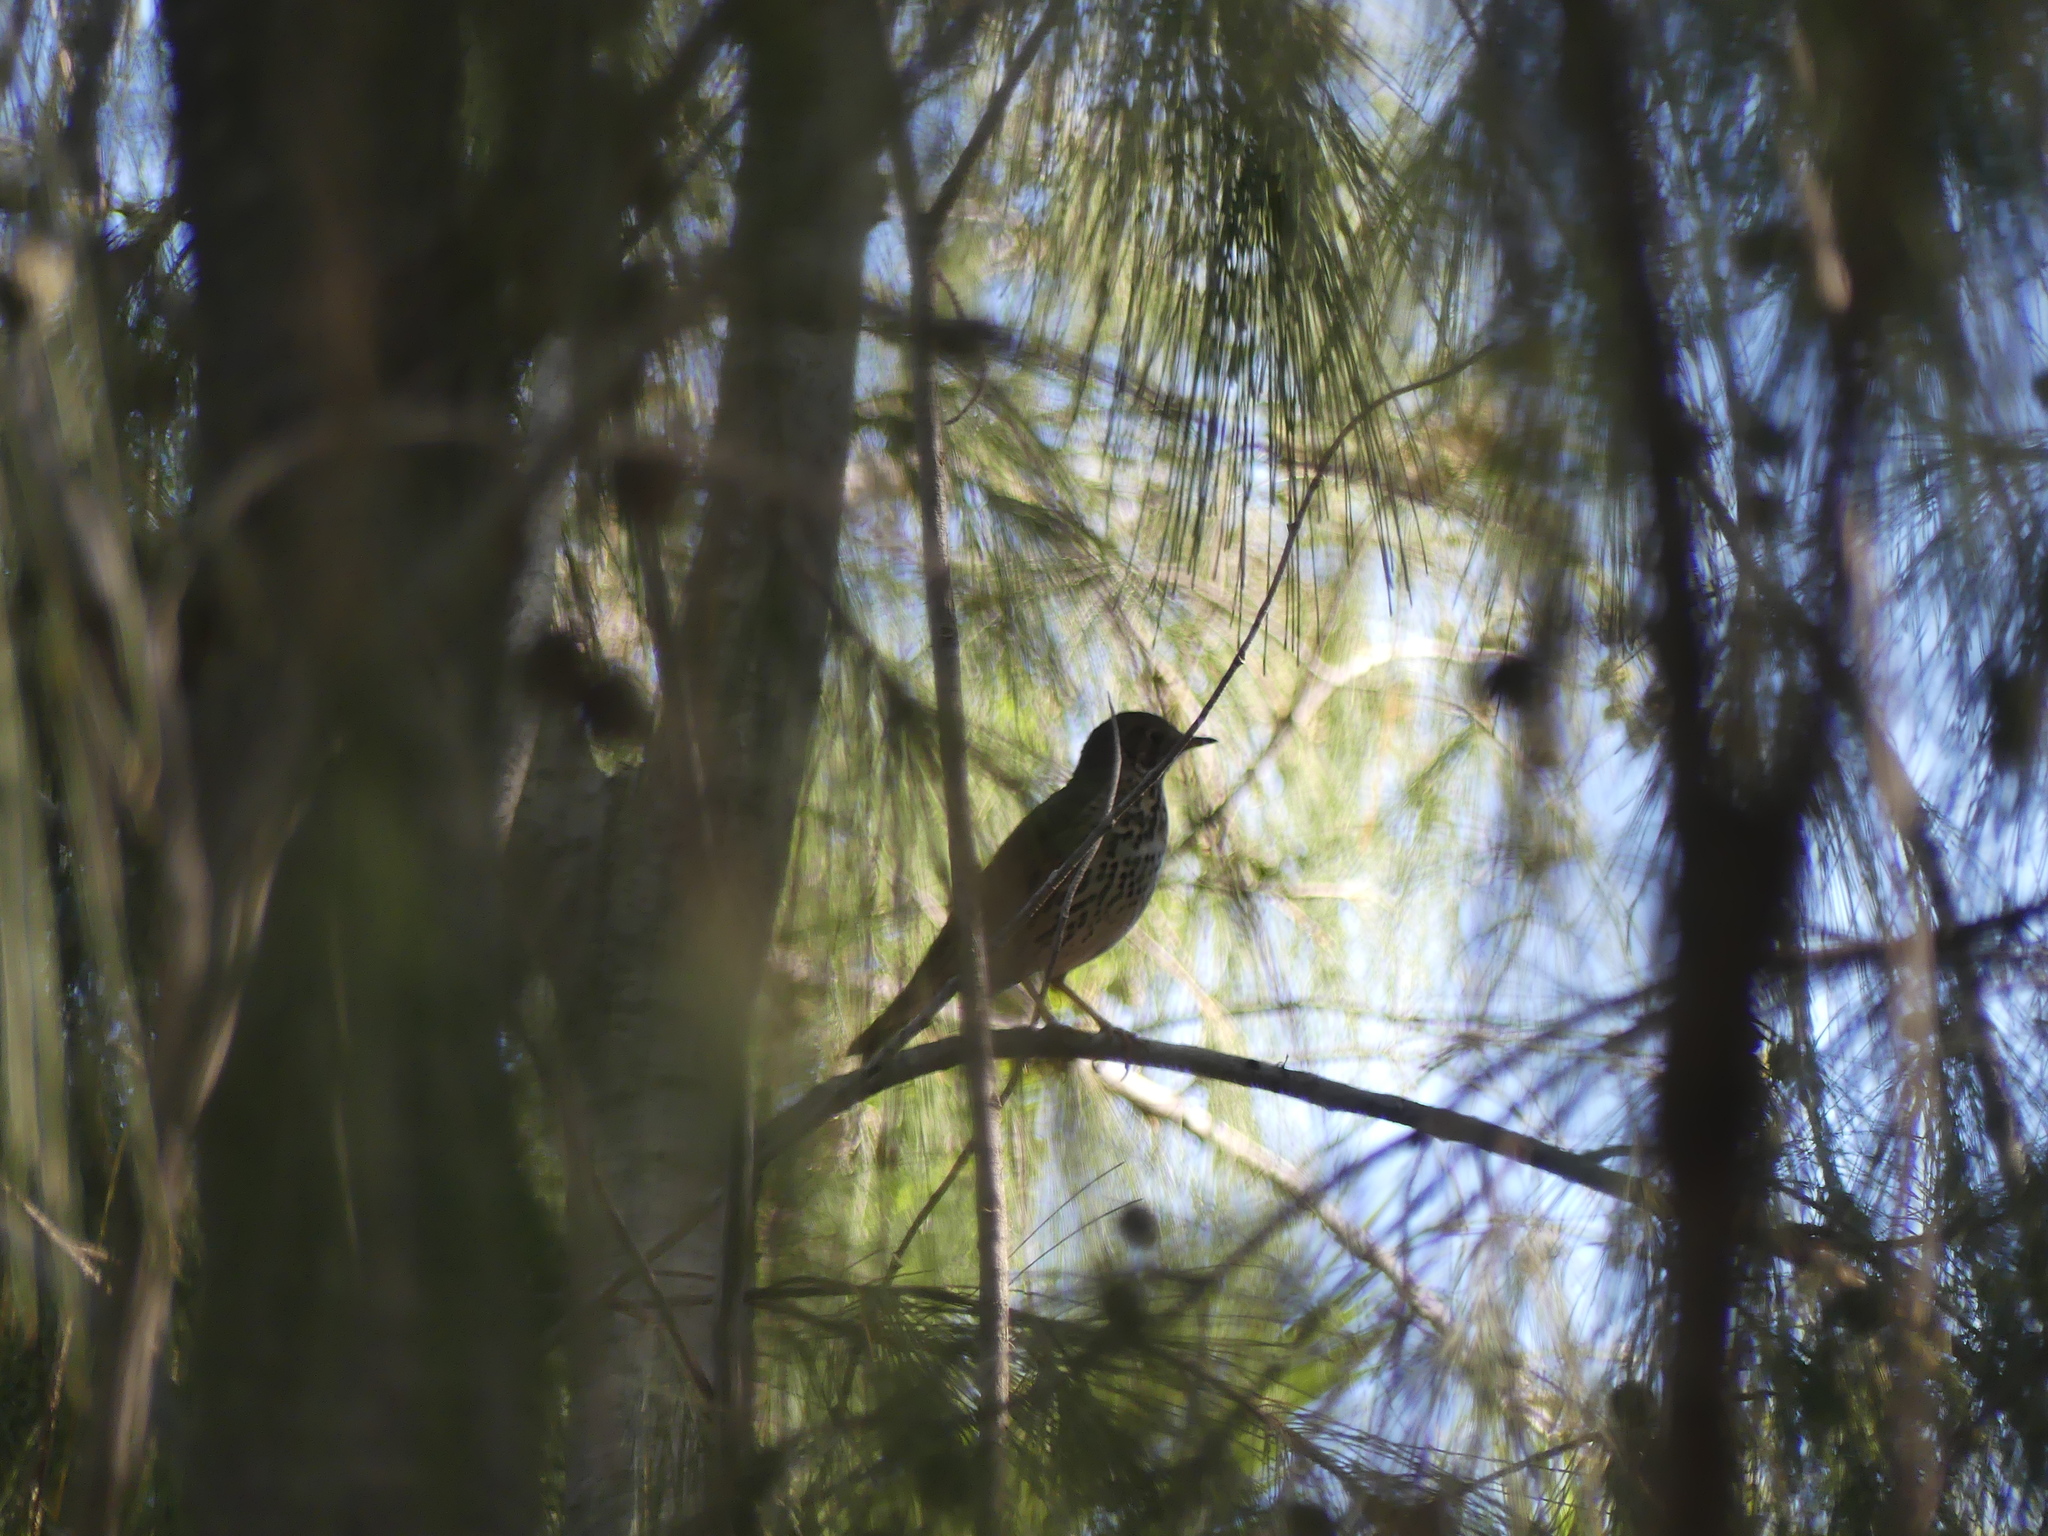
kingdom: Animalia
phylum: Chordata
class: Aves
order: Passeriformes
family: Turdidae
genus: Turdus
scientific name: Turdus philomelos
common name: Song thrush
